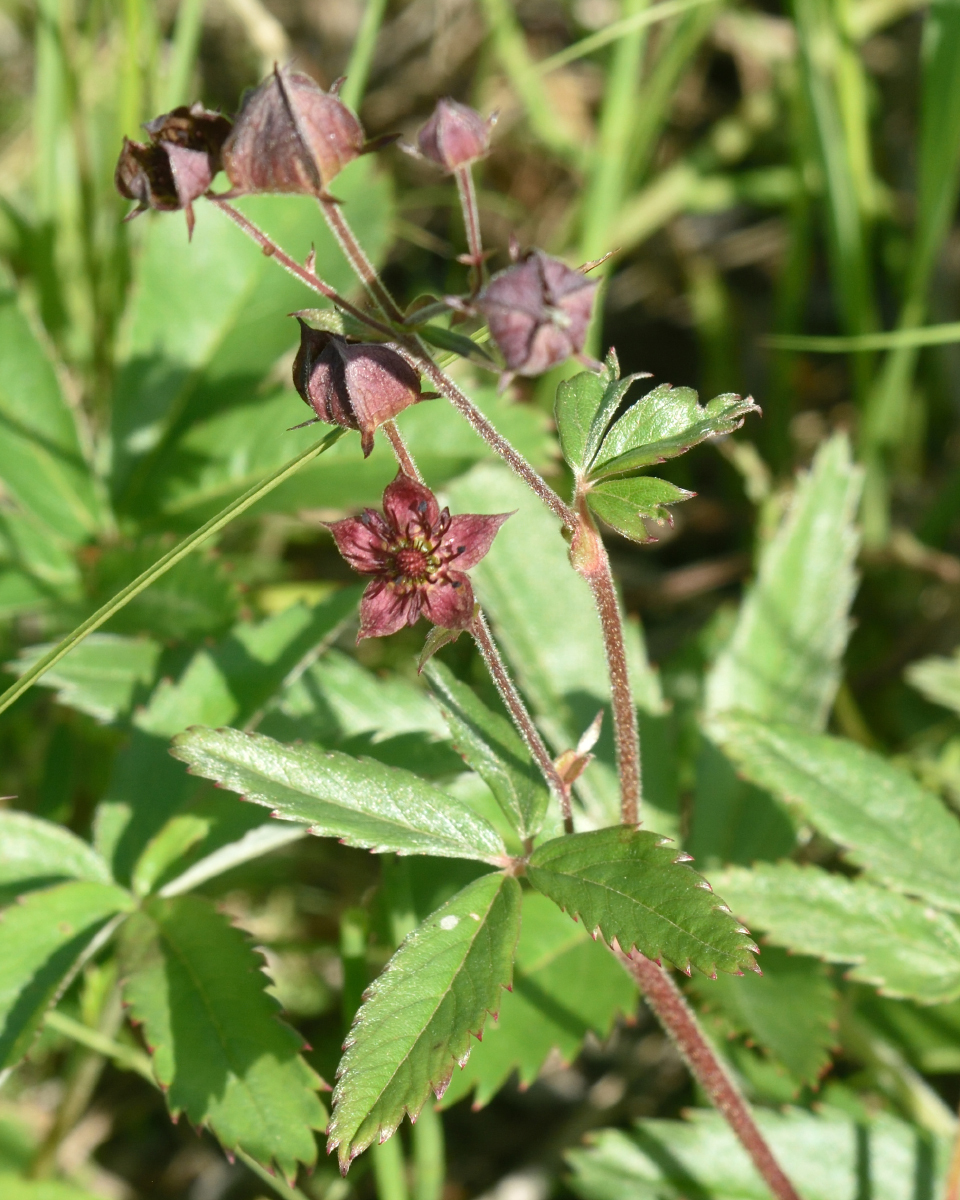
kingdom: Plantae
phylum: Tracheophyta
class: Magnoliopsida
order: Rosales
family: Rosaceae
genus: Comarum
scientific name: Comarum palustre
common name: Marsh cinquefoil
